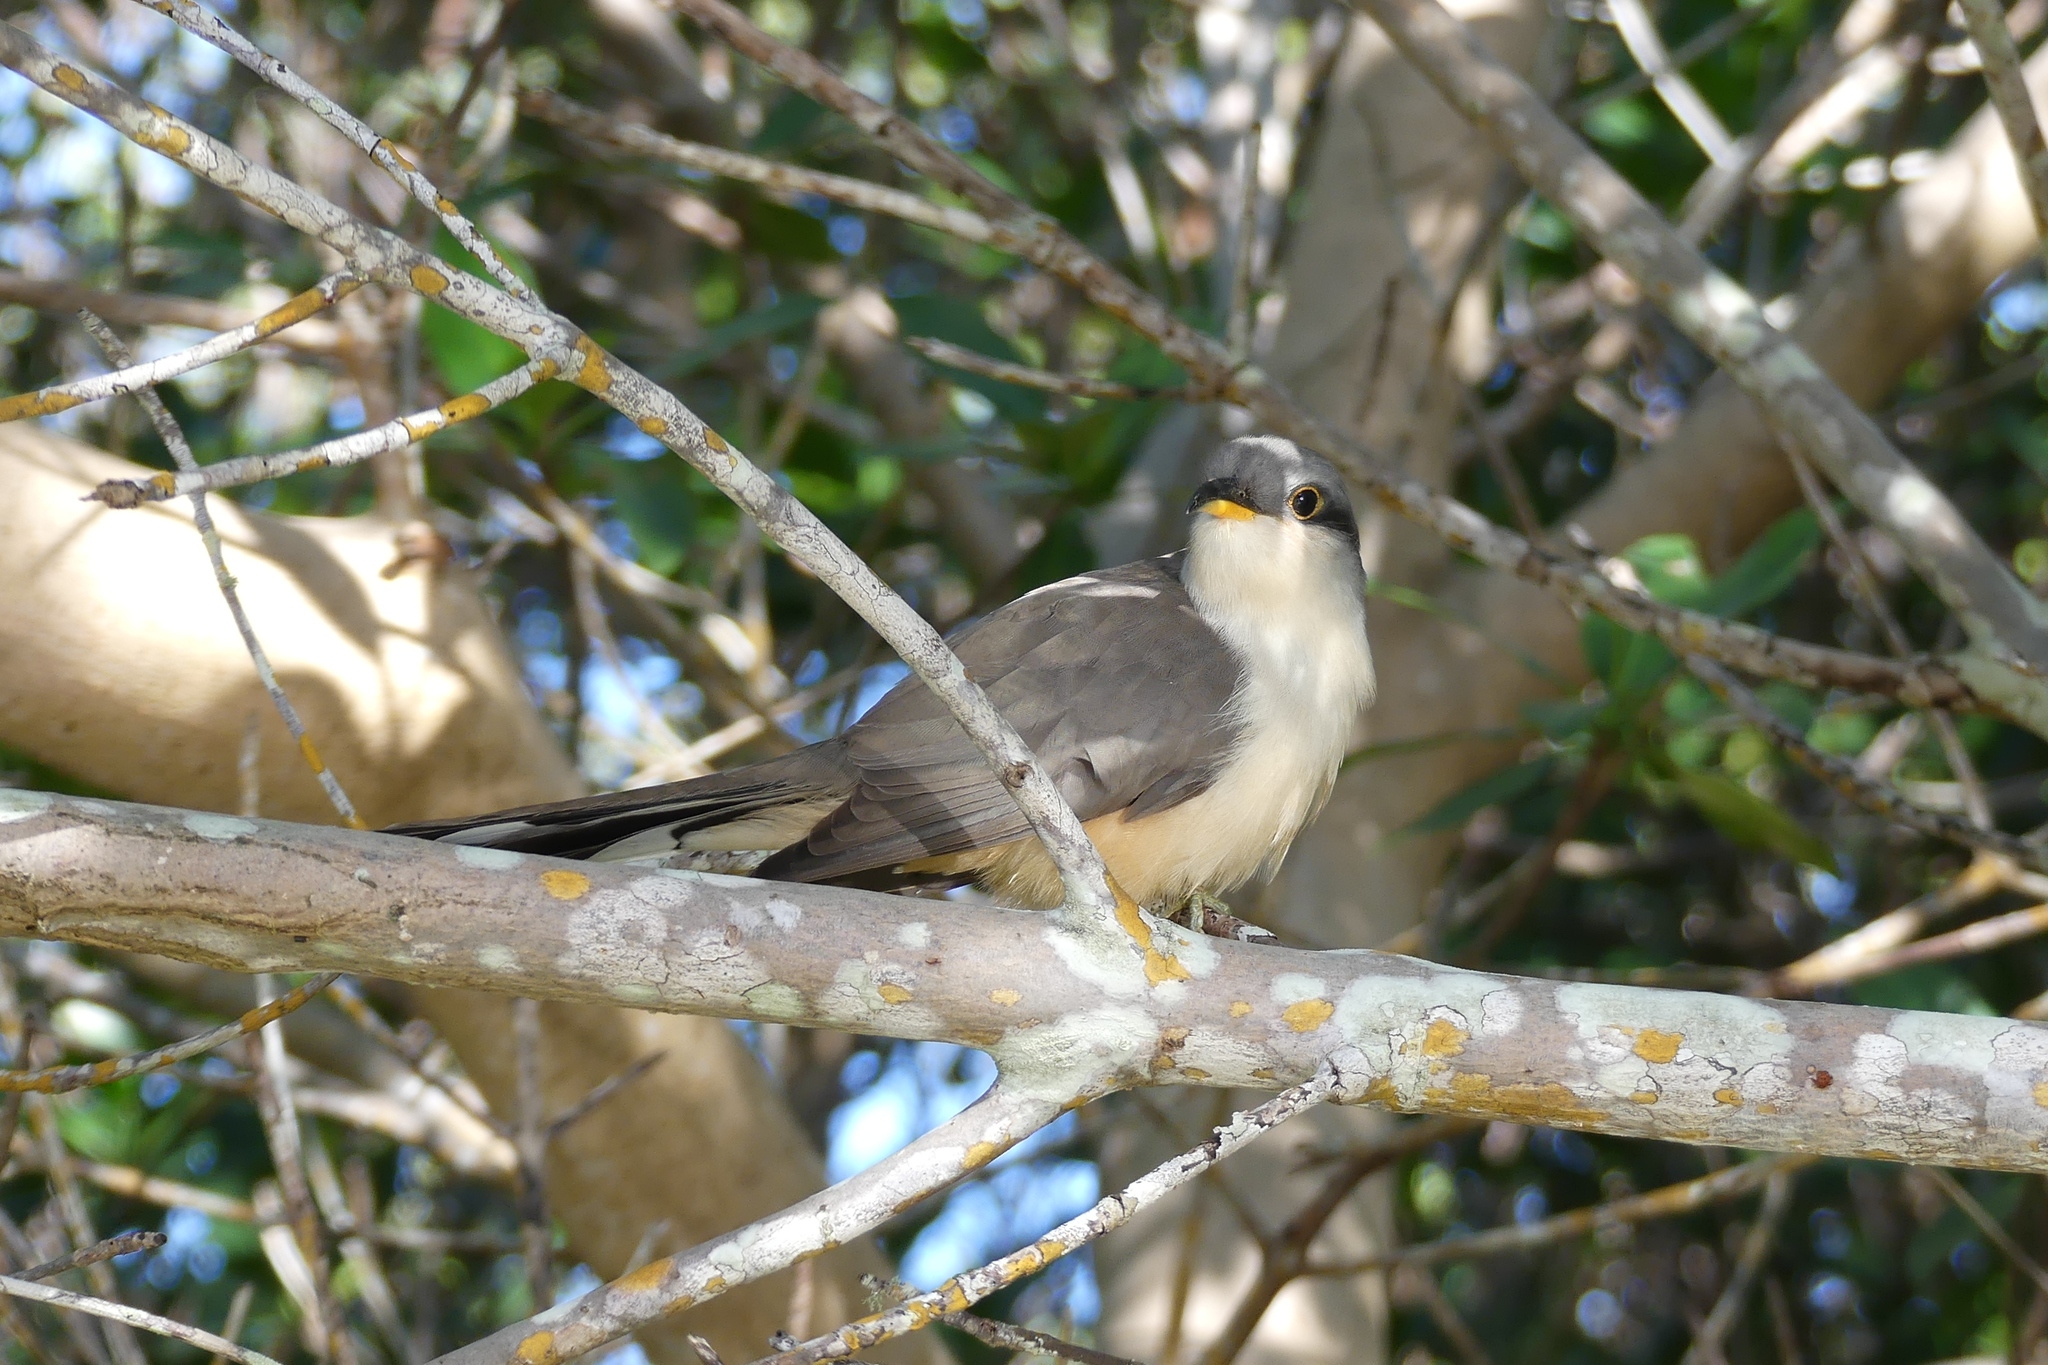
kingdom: Animalia
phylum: Chordata
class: Aves
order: Cuculiformes
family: Cuculidae
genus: Coccyzus
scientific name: Coccyzus minor
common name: Mangrove cuckoo
